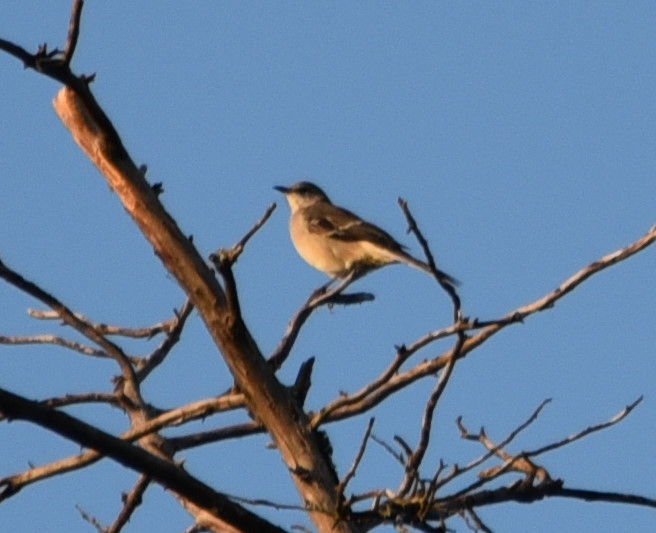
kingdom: Animalia
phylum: Chordata
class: Aves
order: Passeriformes
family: Mimidae
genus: Mimus
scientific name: Mimus polyglottos
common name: Northern mockingbird
